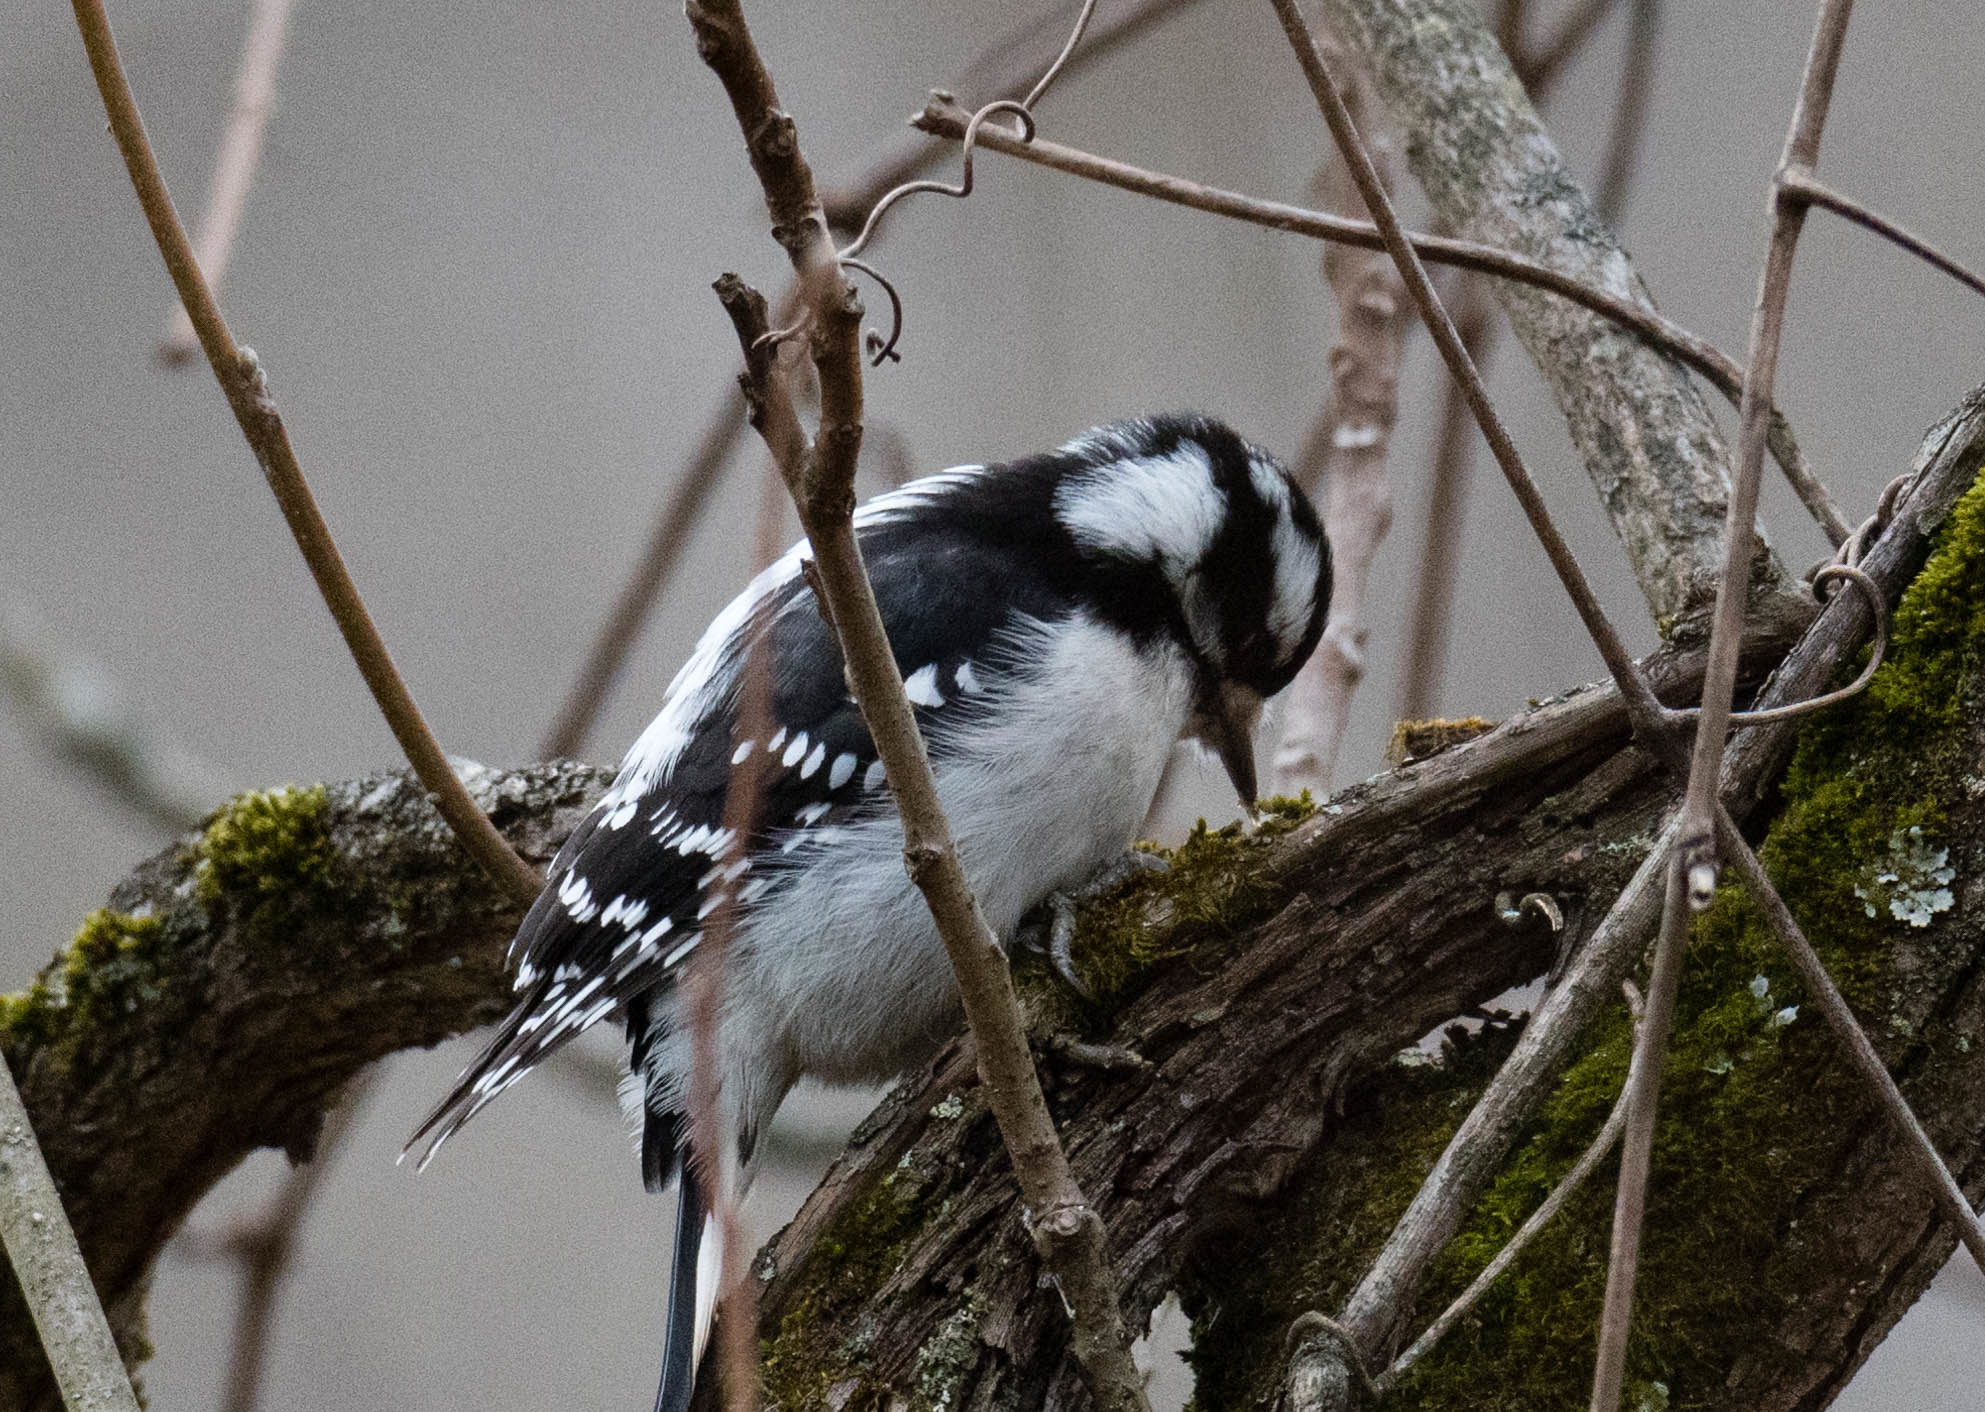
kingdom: Animalia
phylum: Chordata
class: Aves
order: Piciformes
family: Picidae
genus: Dryobates
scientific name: Dryobates pubescens
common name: Downy woodpecker
